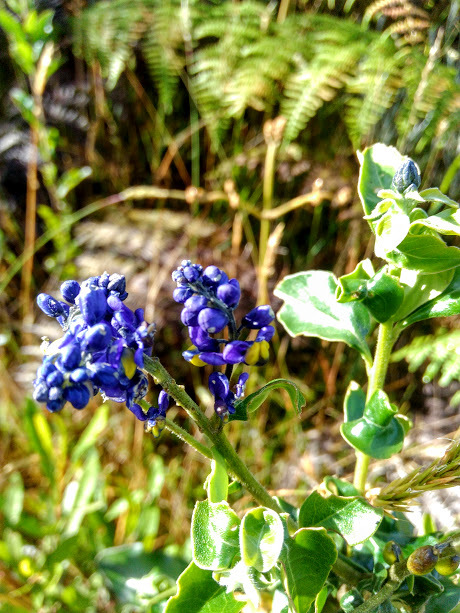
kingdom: Plantae
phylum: Tracheophyta
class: Magnoliopsida
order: Fabales
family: Polygalaceae
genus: Monnina
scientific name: Monnina salicifolia
